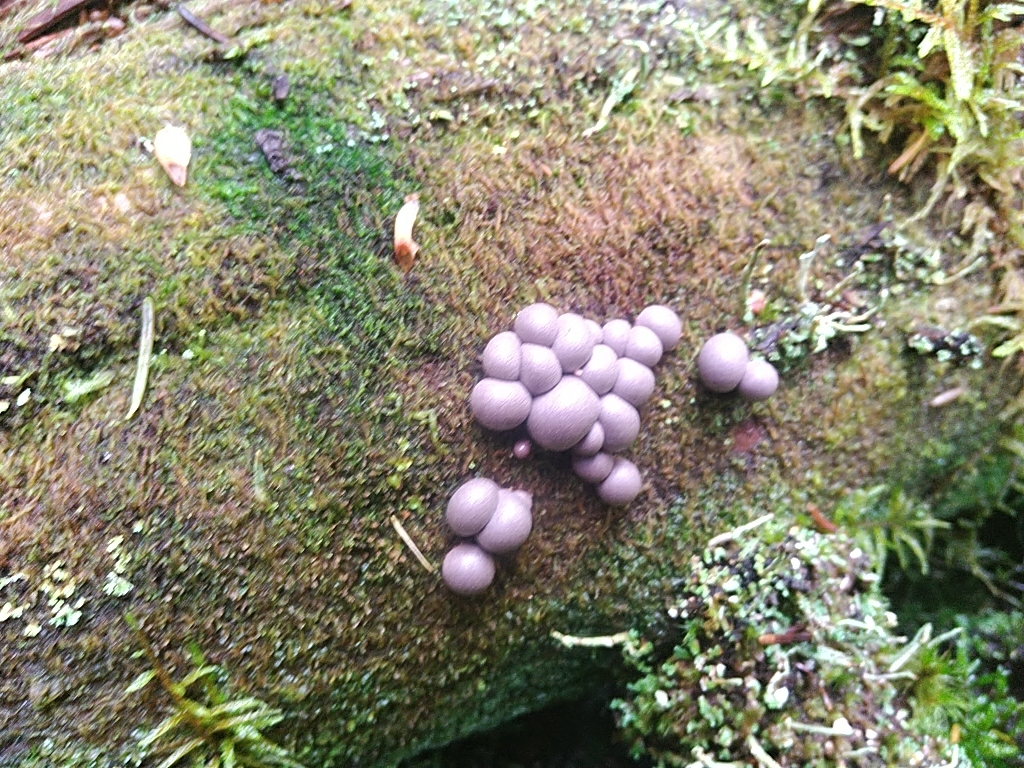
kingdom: Protozoa
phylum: Mycetozoa
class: Myxomycetes
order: Cribrariales
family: Tubiferaceae
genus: Lycogala
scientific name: Lycogala epidendrum
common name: Wolf's milk
